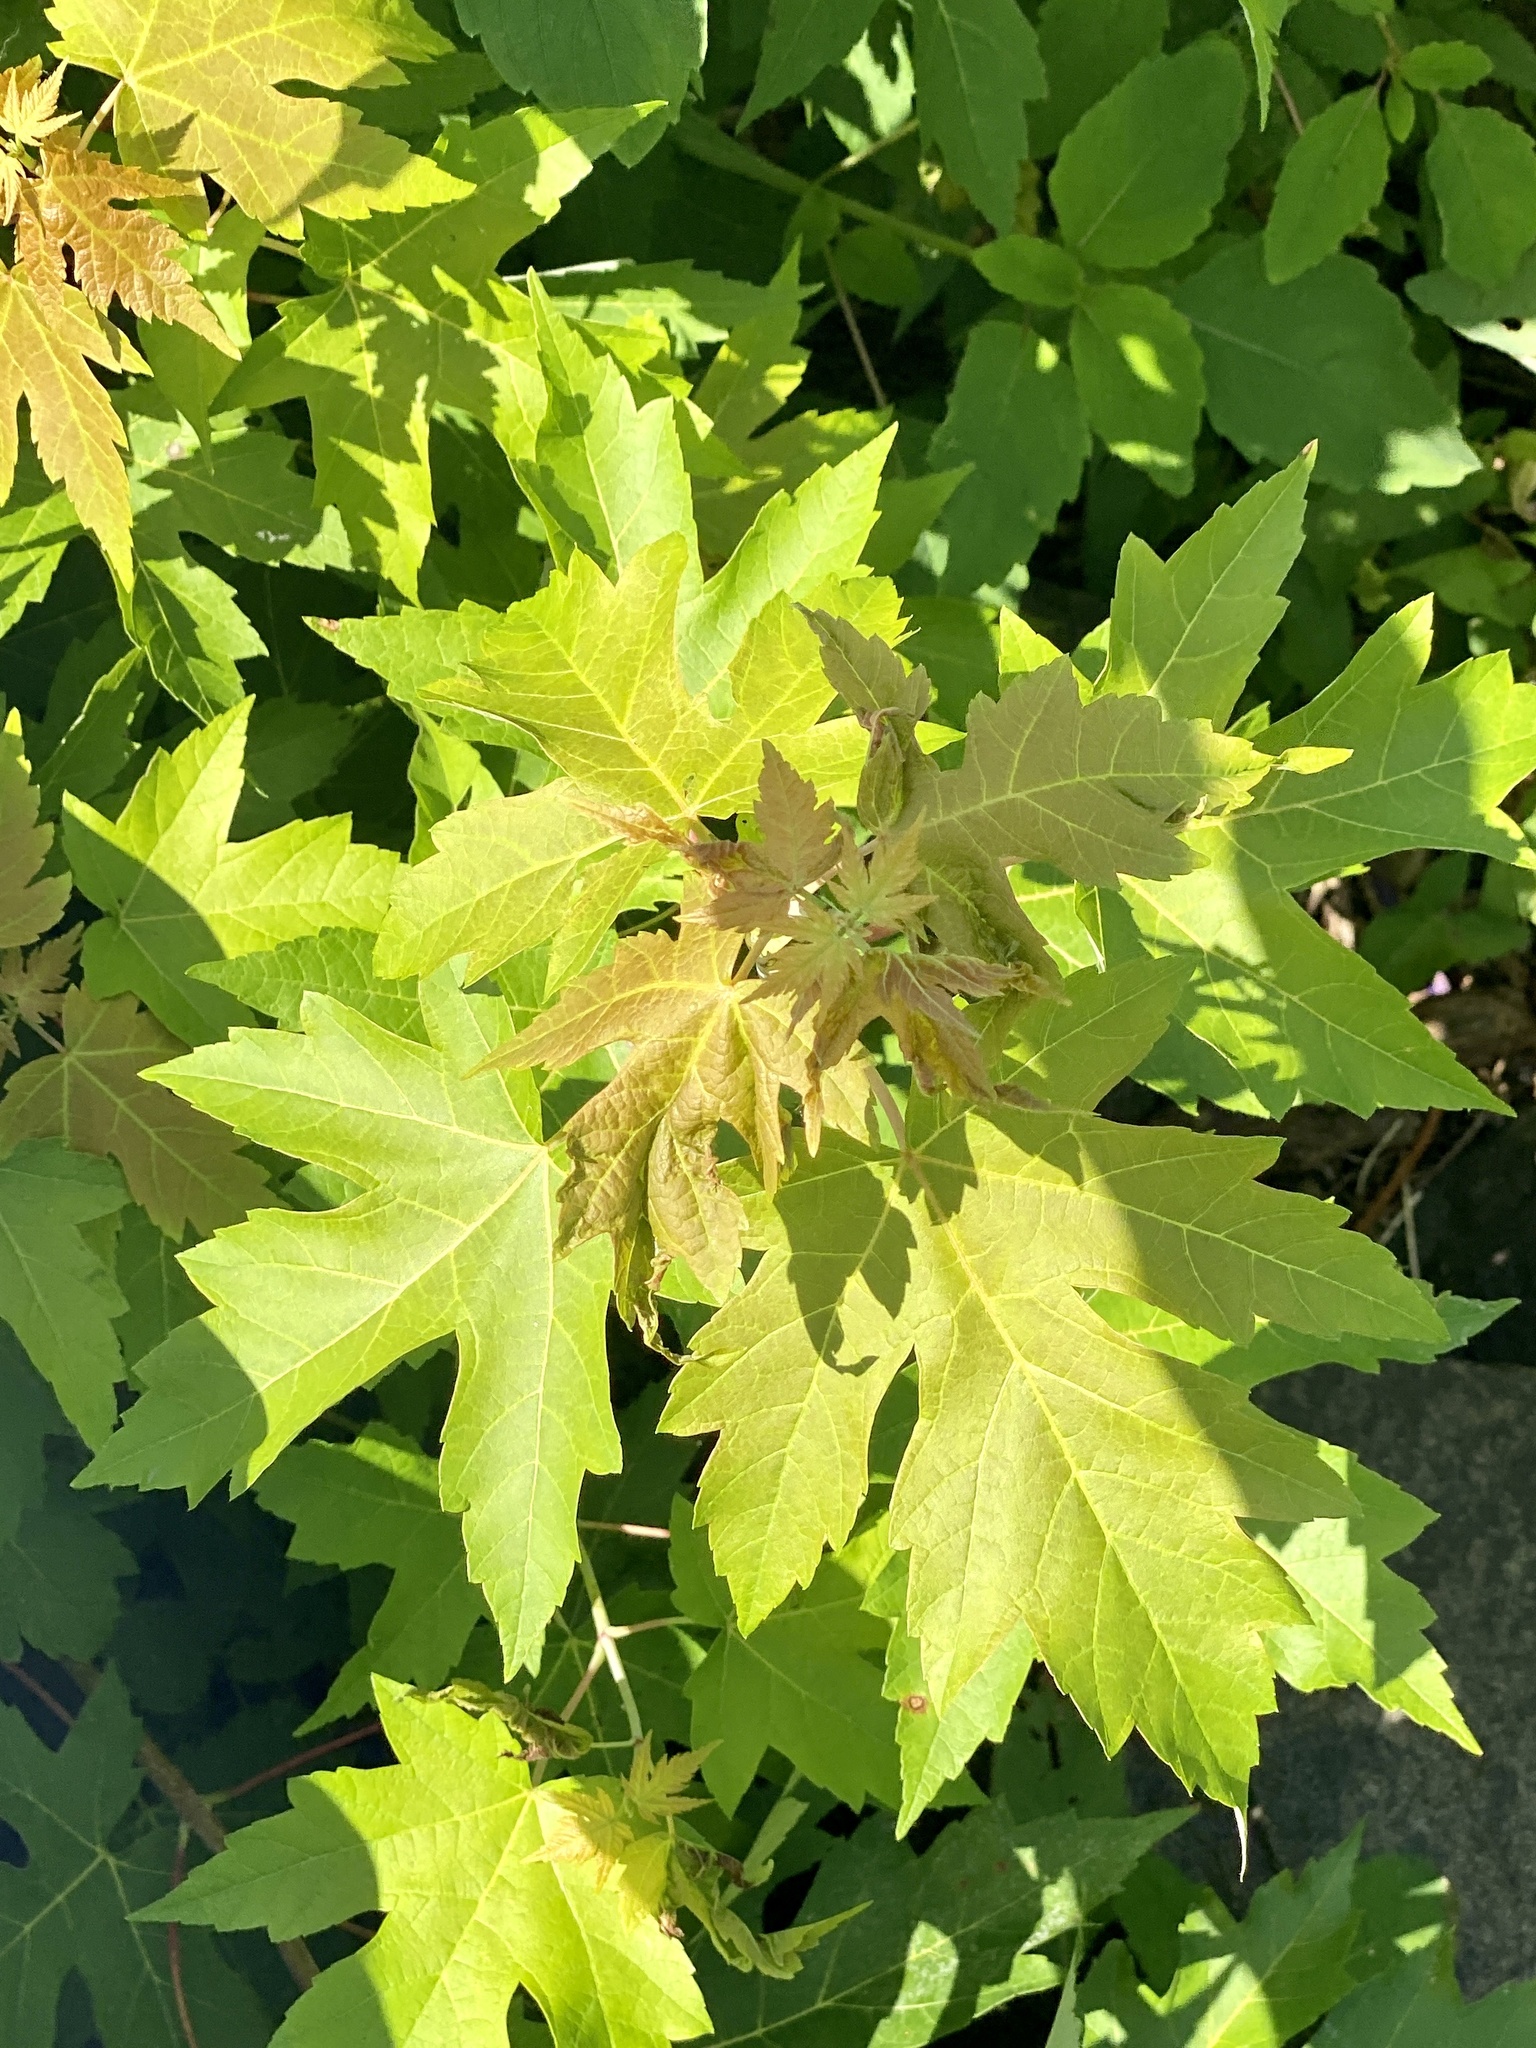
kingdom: Plantae
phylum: Tracheophyta
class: Magnoliopsida
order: Sapindales
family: Sapindaceae
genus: Acer
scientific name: Acer saccharinum
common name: Silver maple
